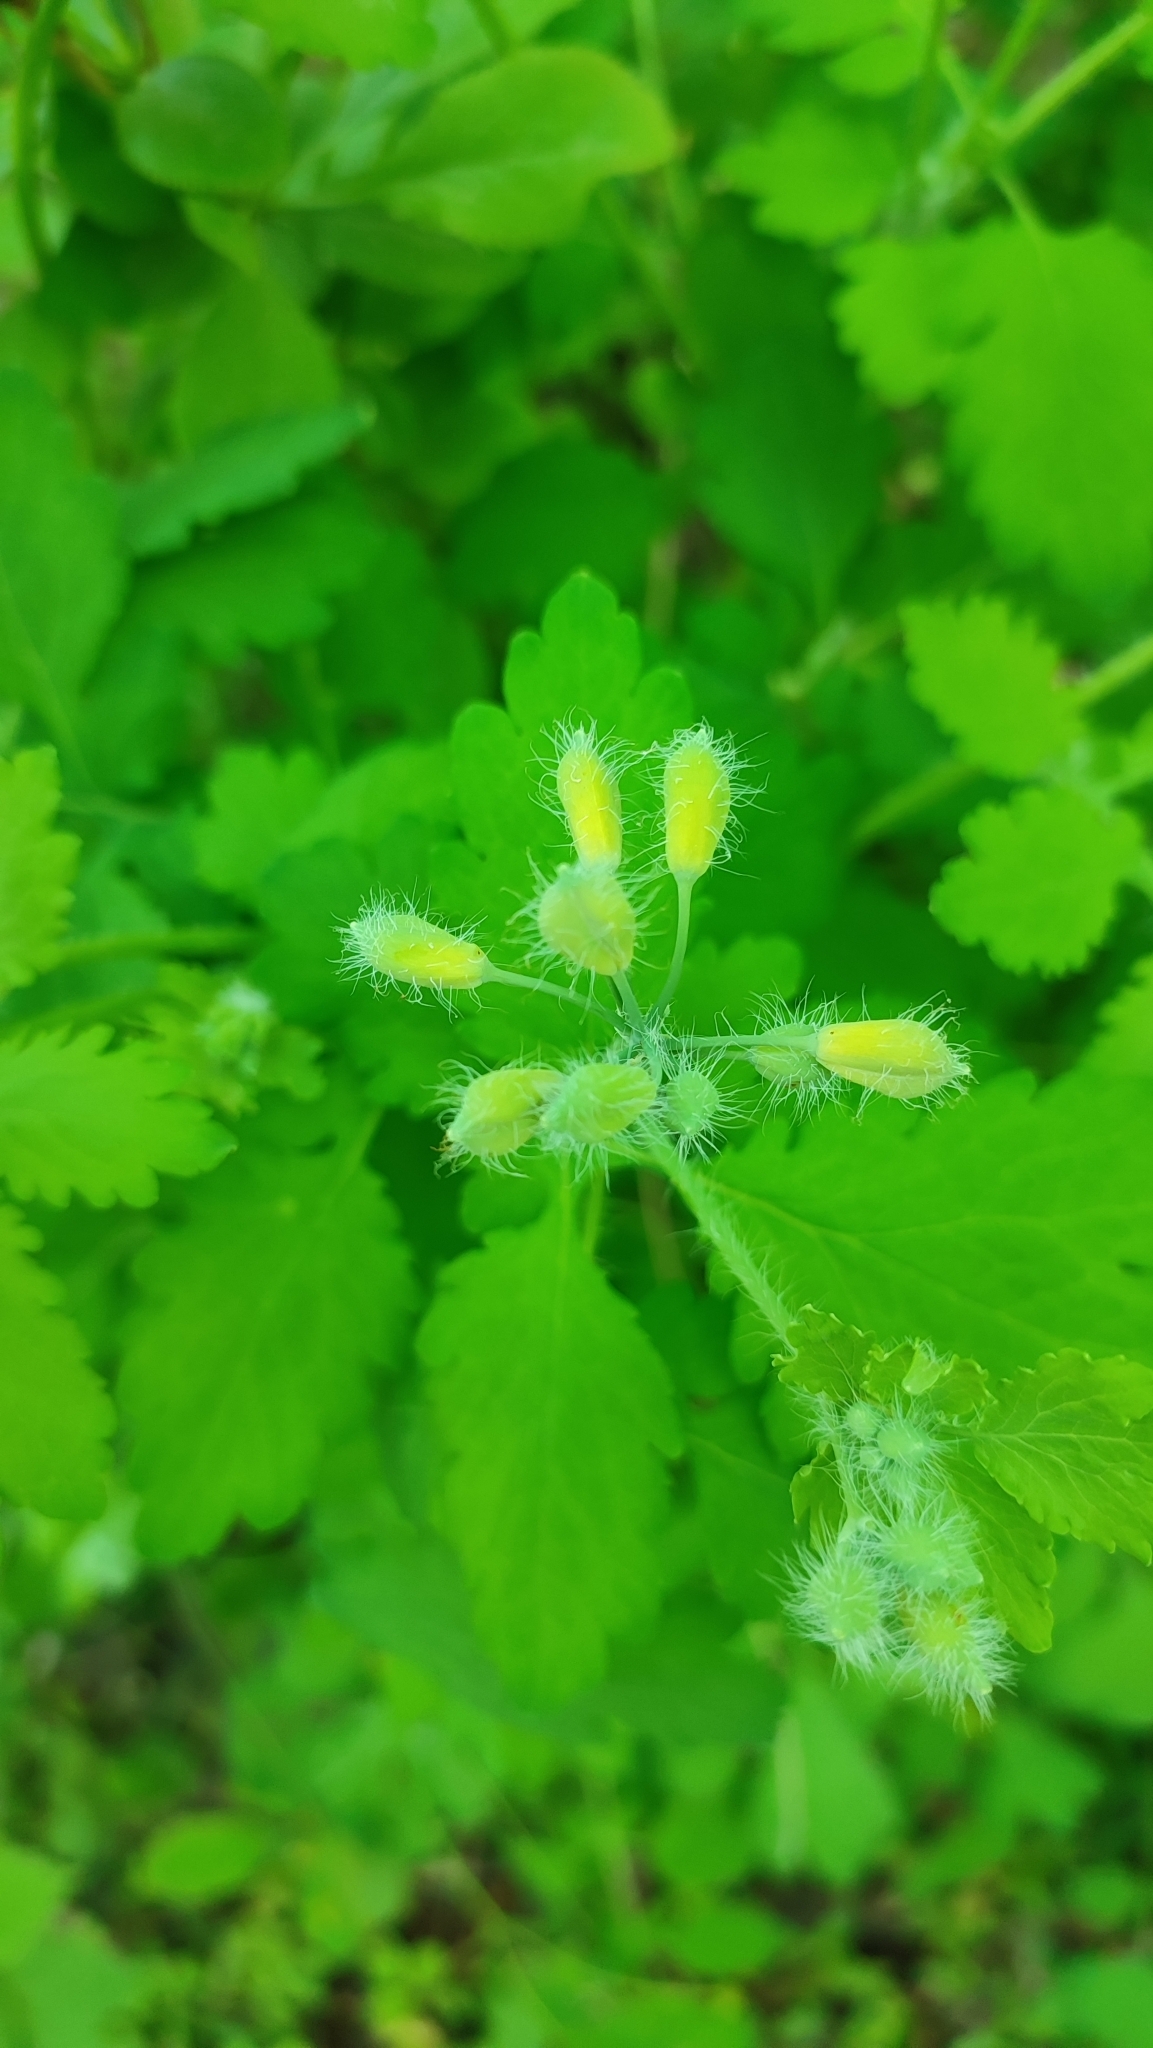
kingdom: Plantae
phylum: Tracheophyta
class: Magnoliopsida
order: Ranunculales
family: Papaveraceae
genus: Chelidonium
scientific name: Chelidonium majus
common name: Greater celandine
